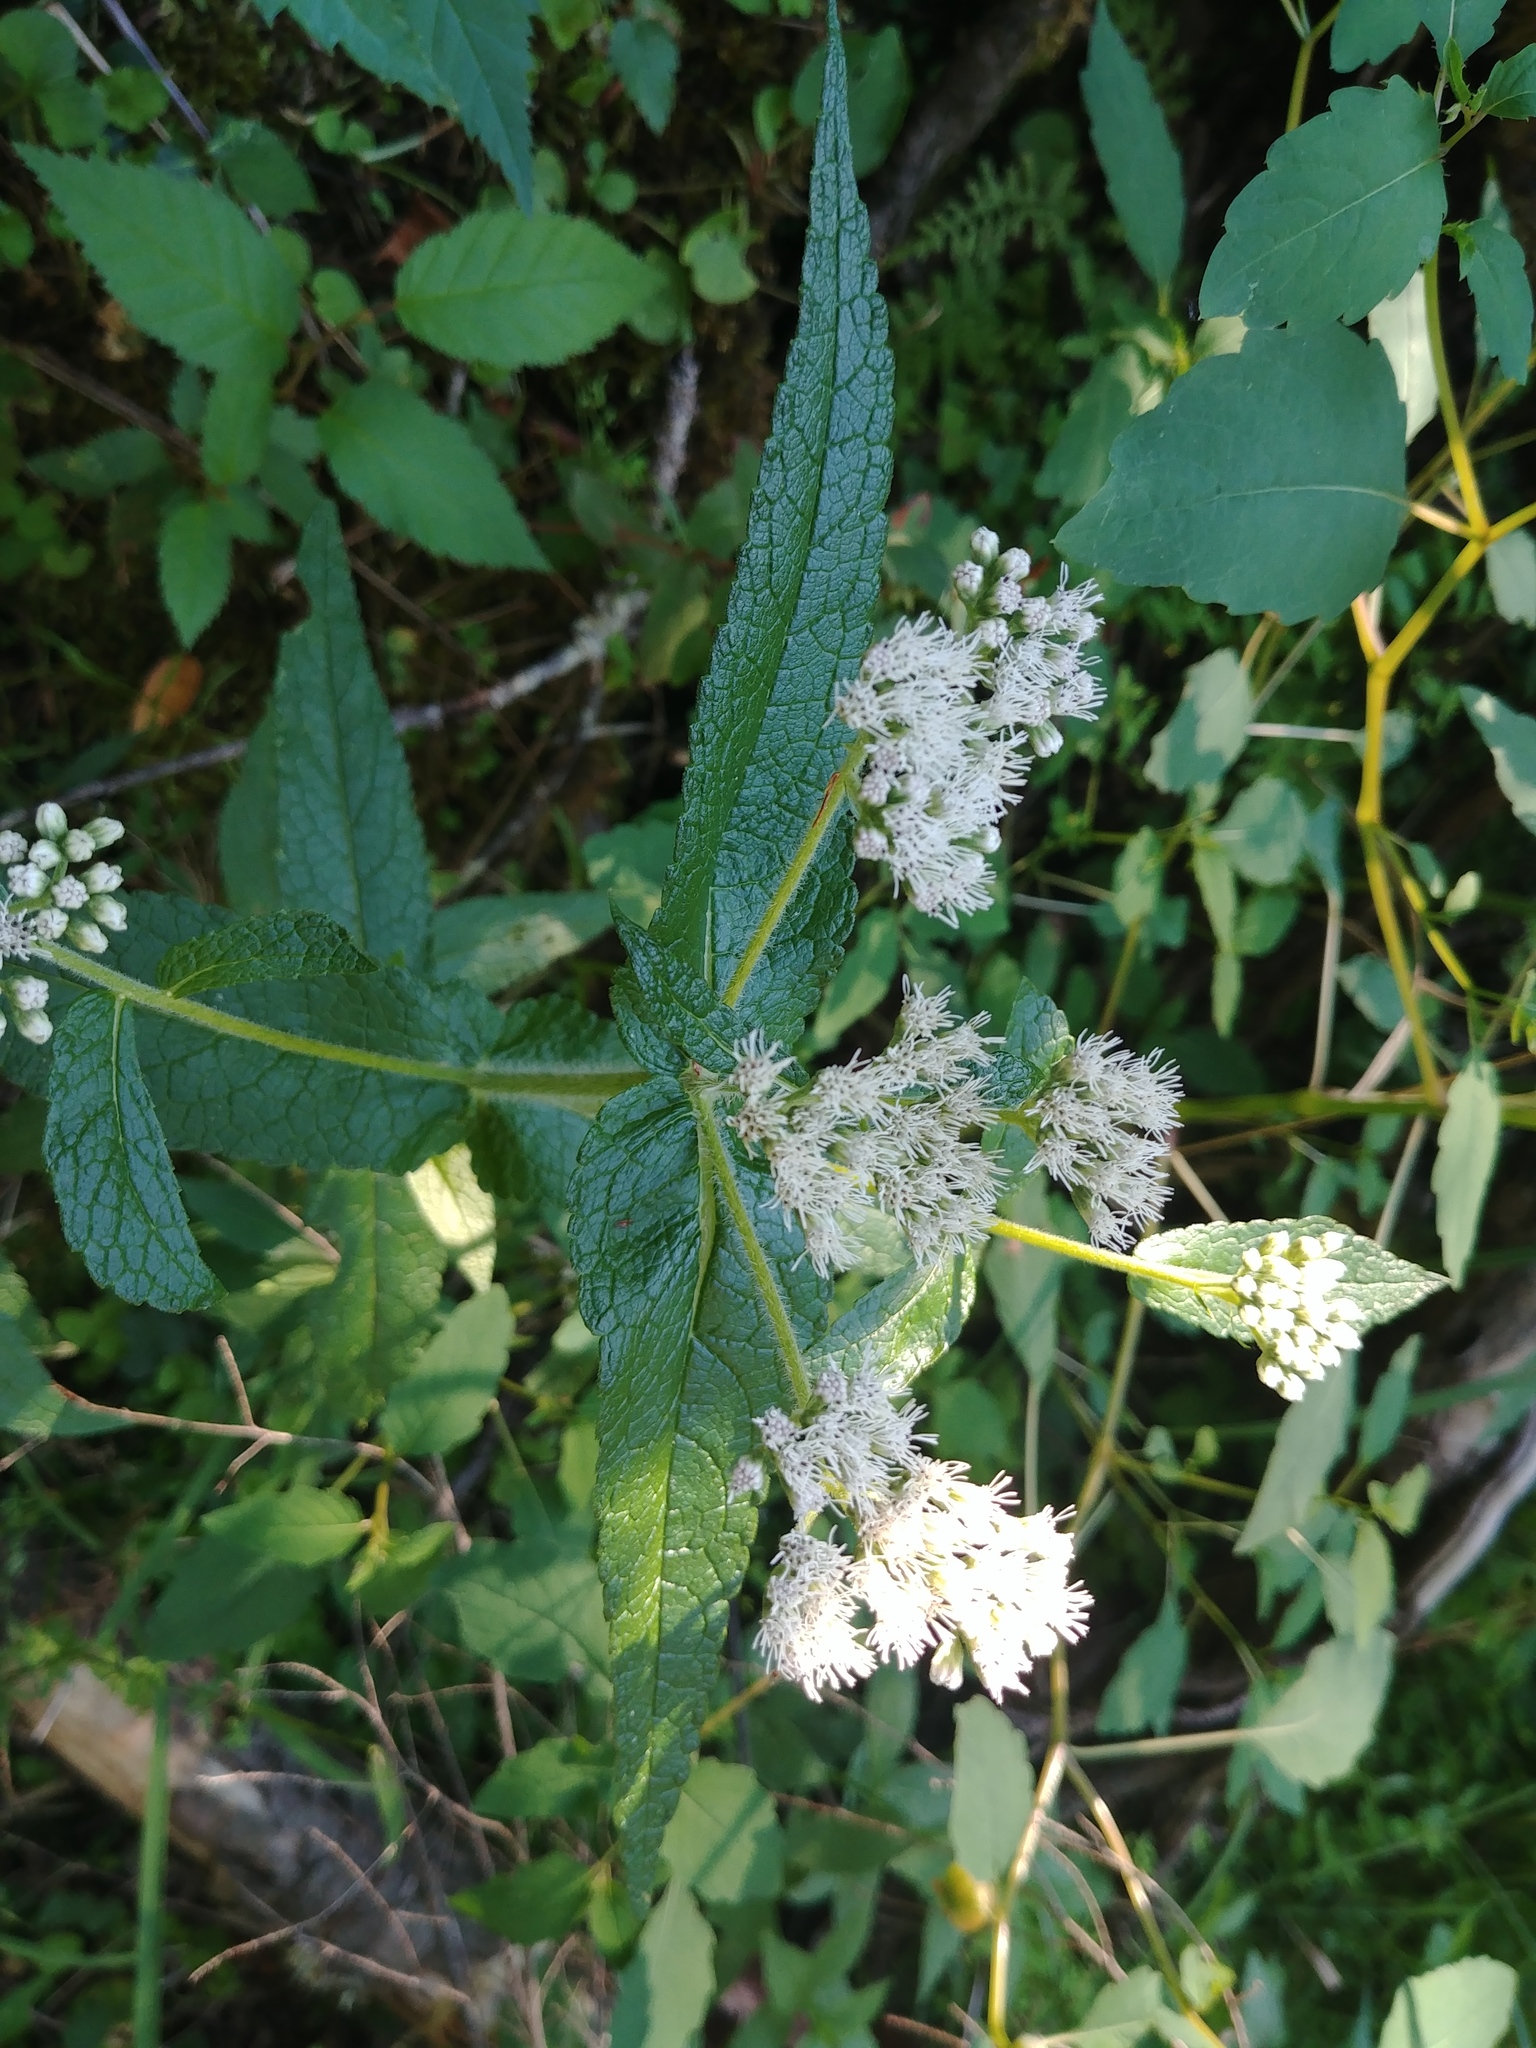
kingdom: Plantae
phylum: Tracheophyta
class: Magnoliopsida
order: Asterales
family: Asteraceae
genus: Eupatorium
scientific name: Eupatorium perfoliatum
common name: Boneset
